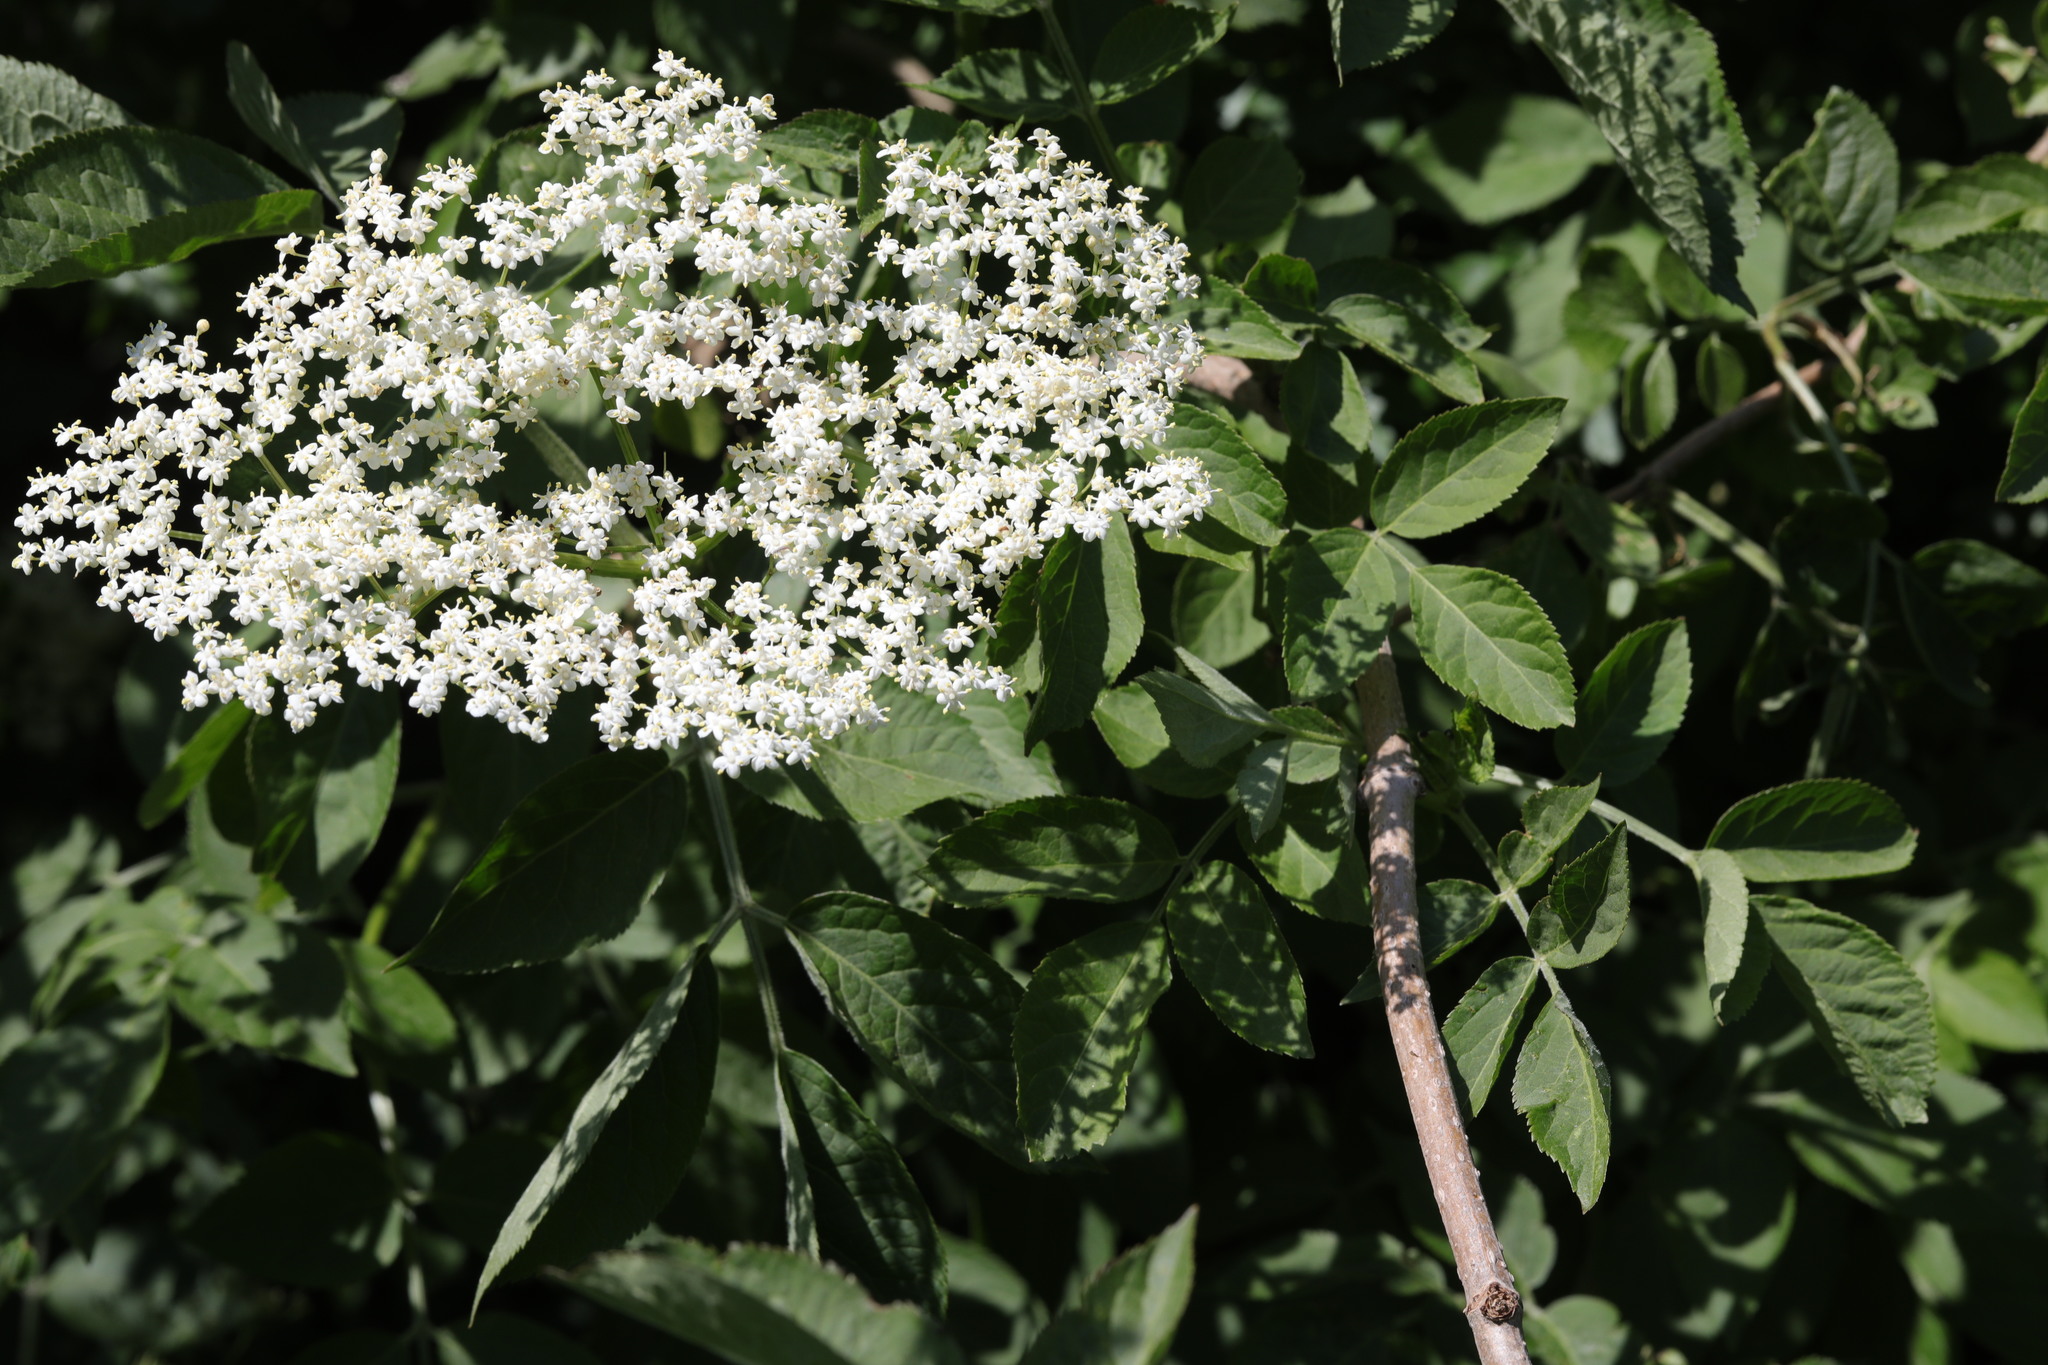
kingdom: Plantae
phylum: Tracheophyta
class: Magnoliopsida
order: Dipsacales
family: Viburnaceae
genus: Sambucus
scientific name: Sambucus nigra
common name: Elder
